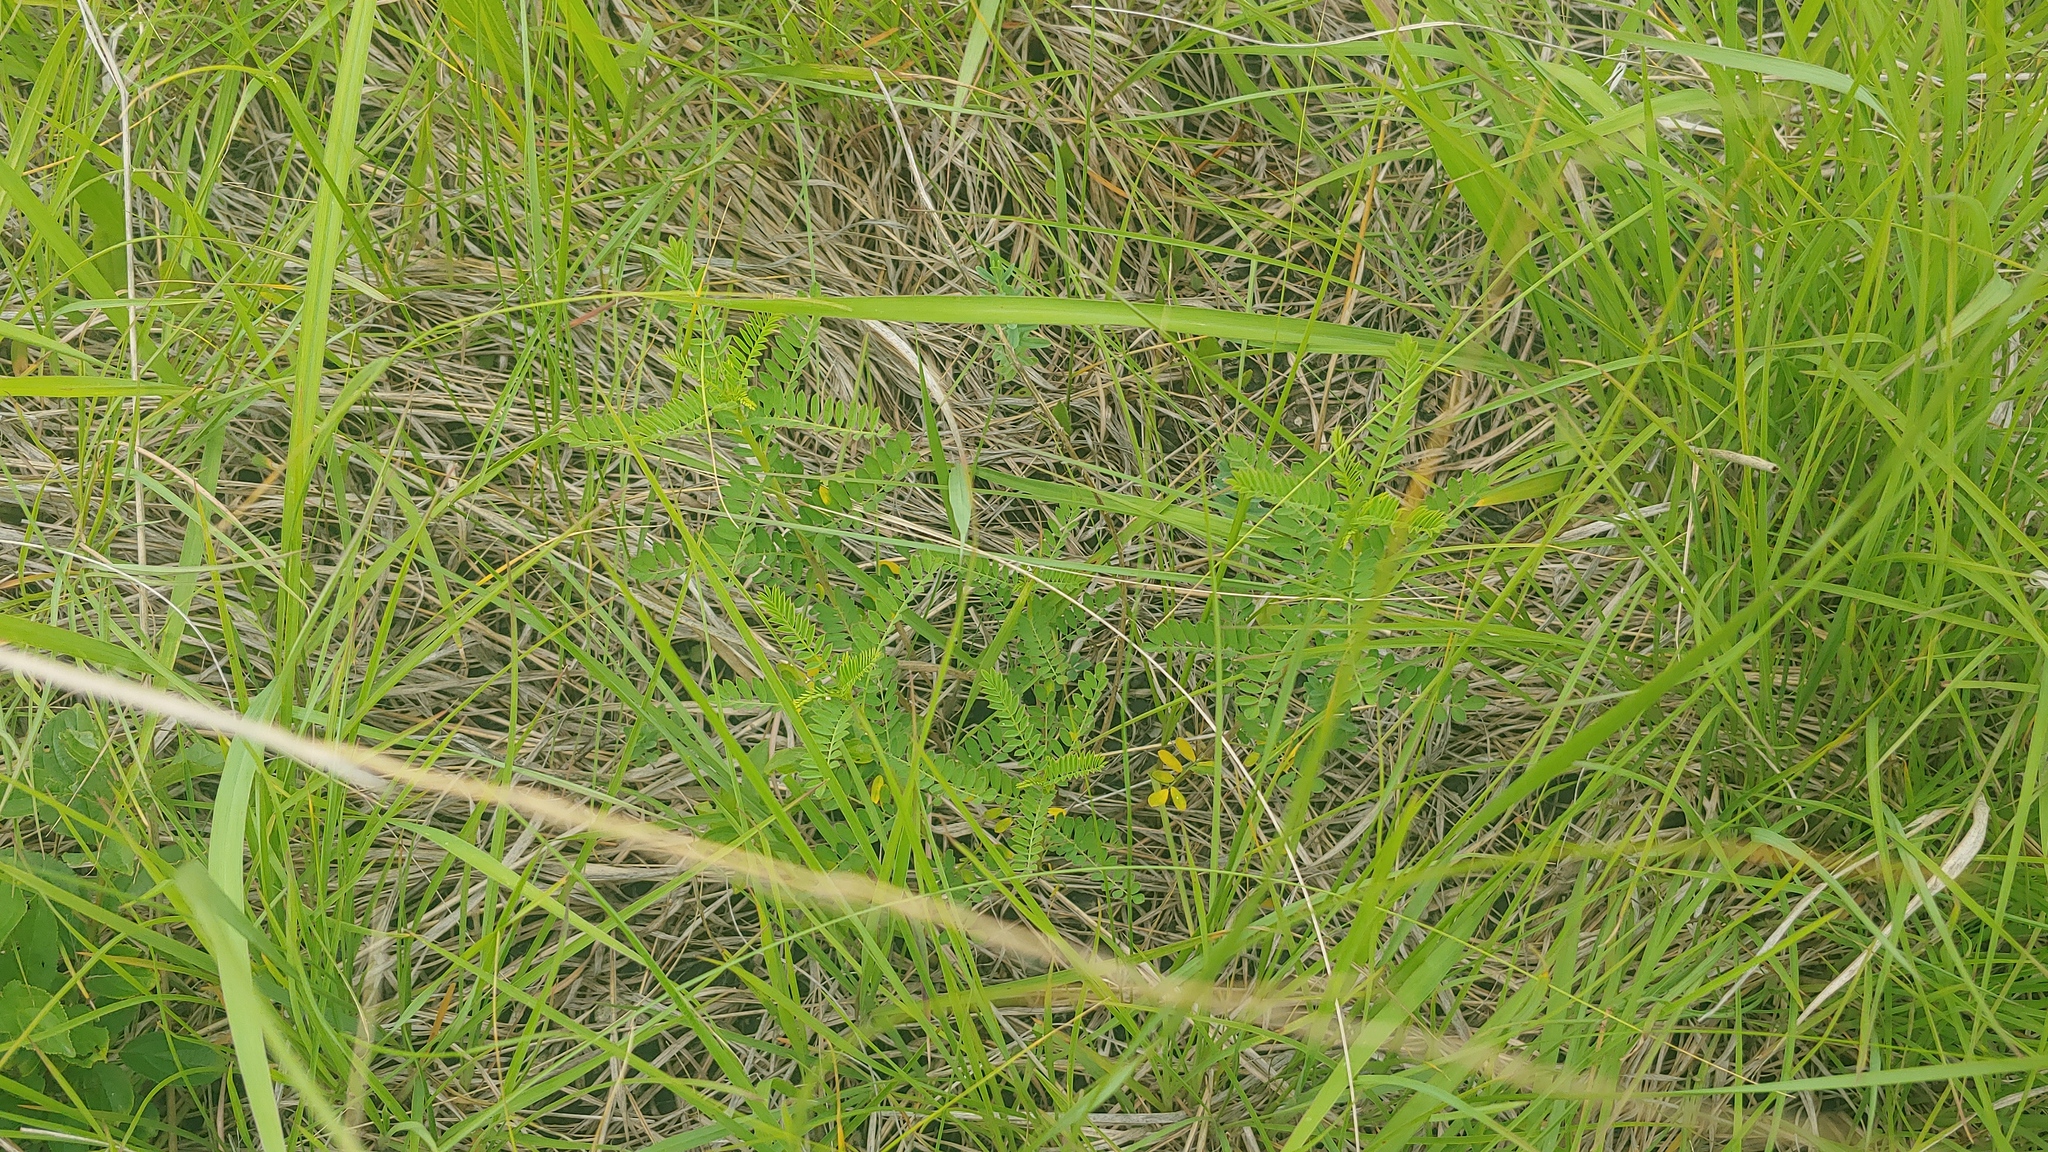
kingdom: Plantae
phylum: Tracheophyta
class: Magnoliopsida
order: Fabales
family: Fabaceae
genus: Dalea
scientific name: Dalea foliosa
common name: Leafy prairie-clover
